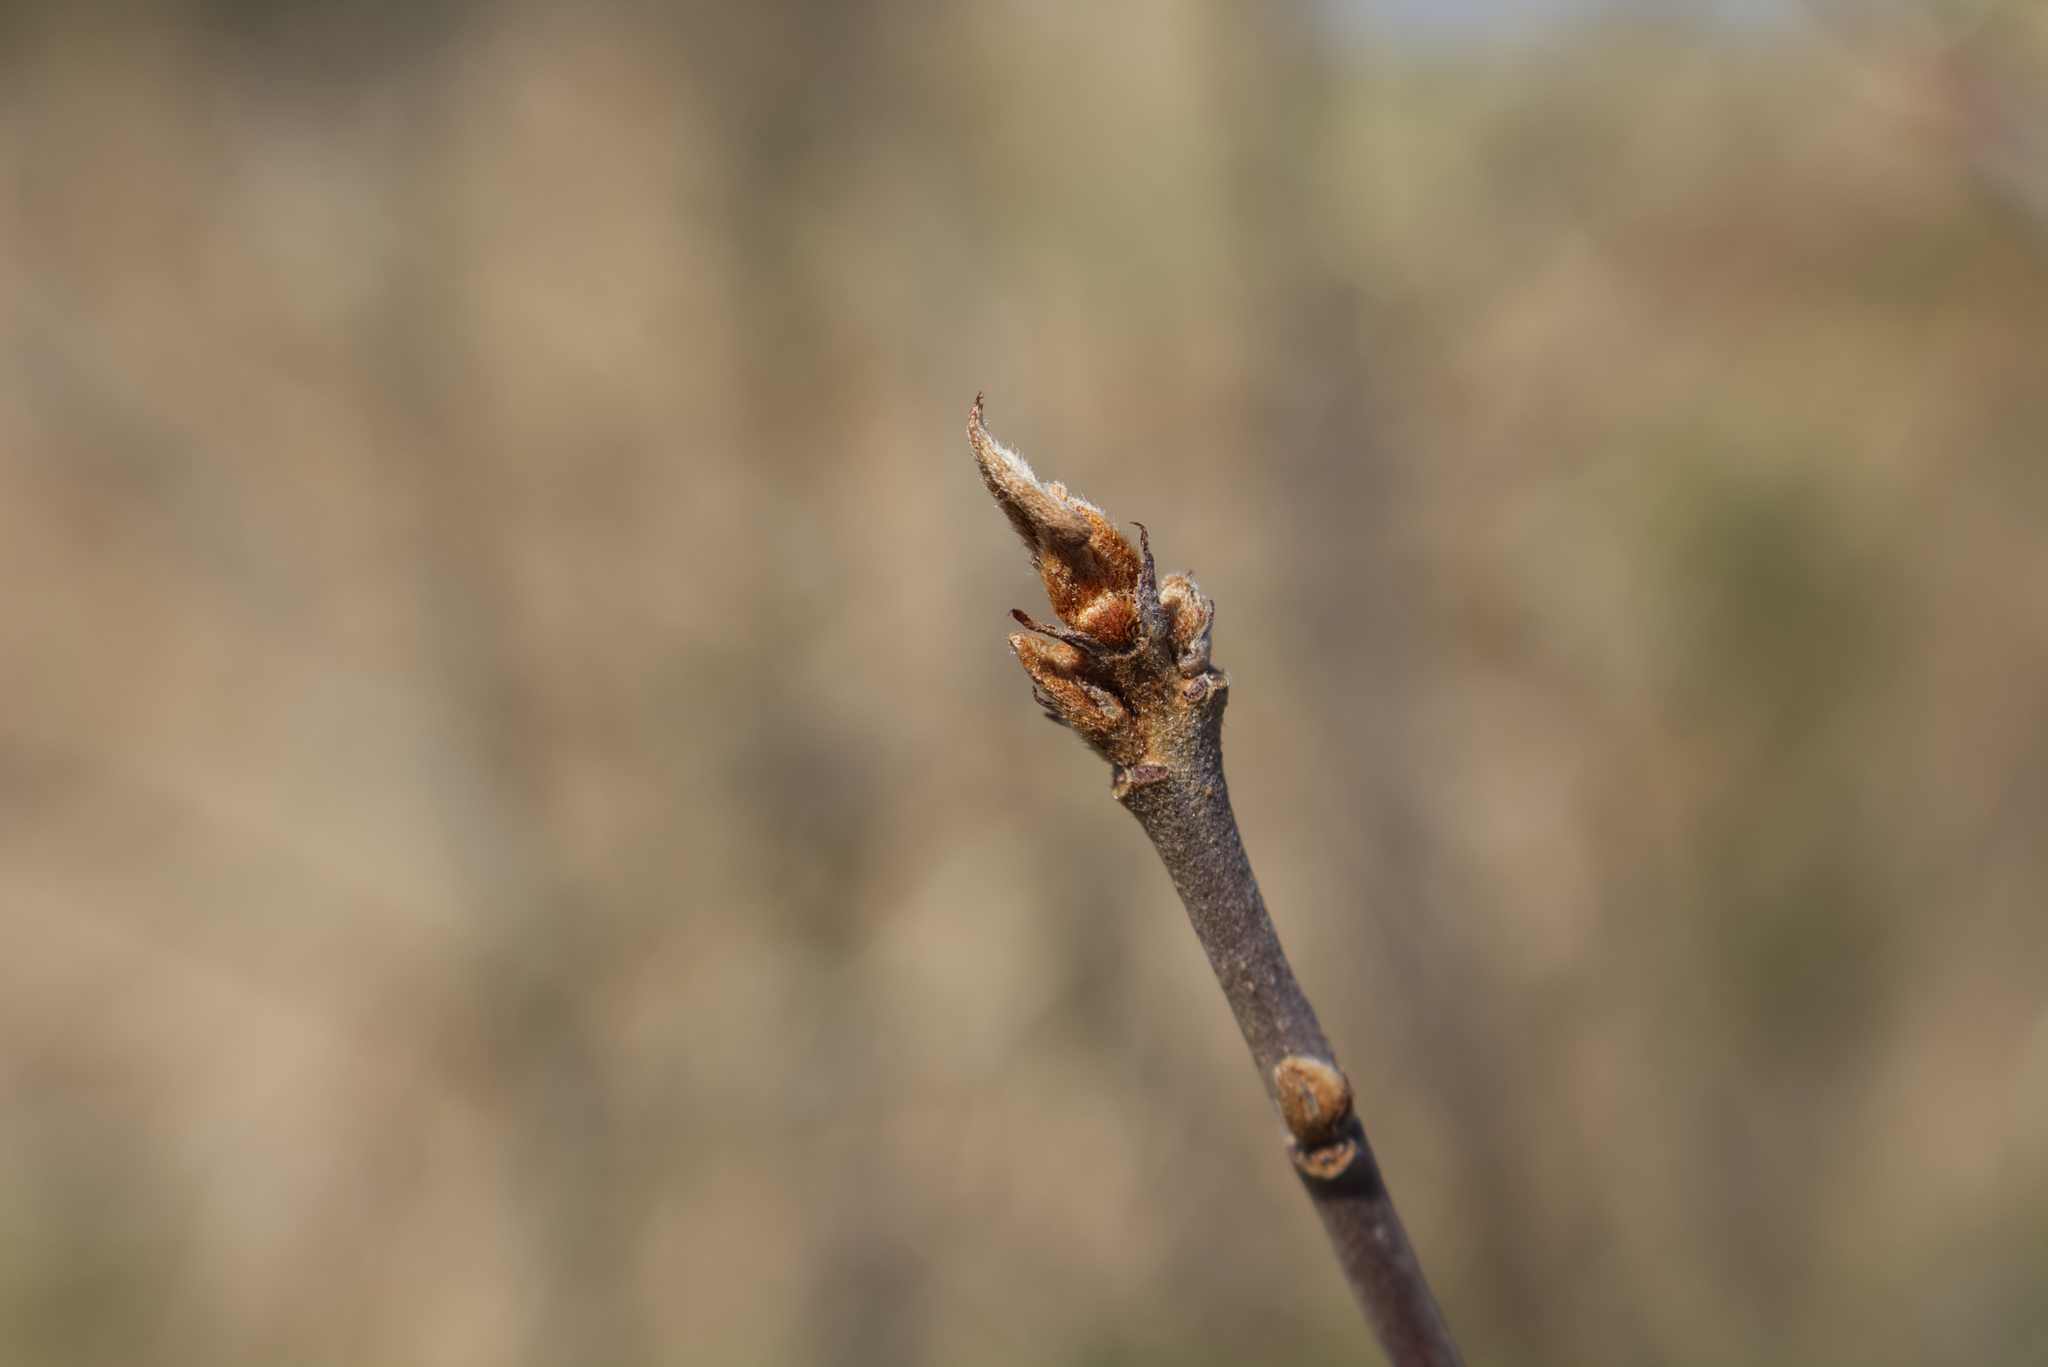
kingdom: Plantae
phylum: Tracheophyta
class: Magnoliopsida
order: Rosales
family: Rhamnaceae
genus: Frangula
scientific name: Frangula alnus
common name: Alder buckthorn
